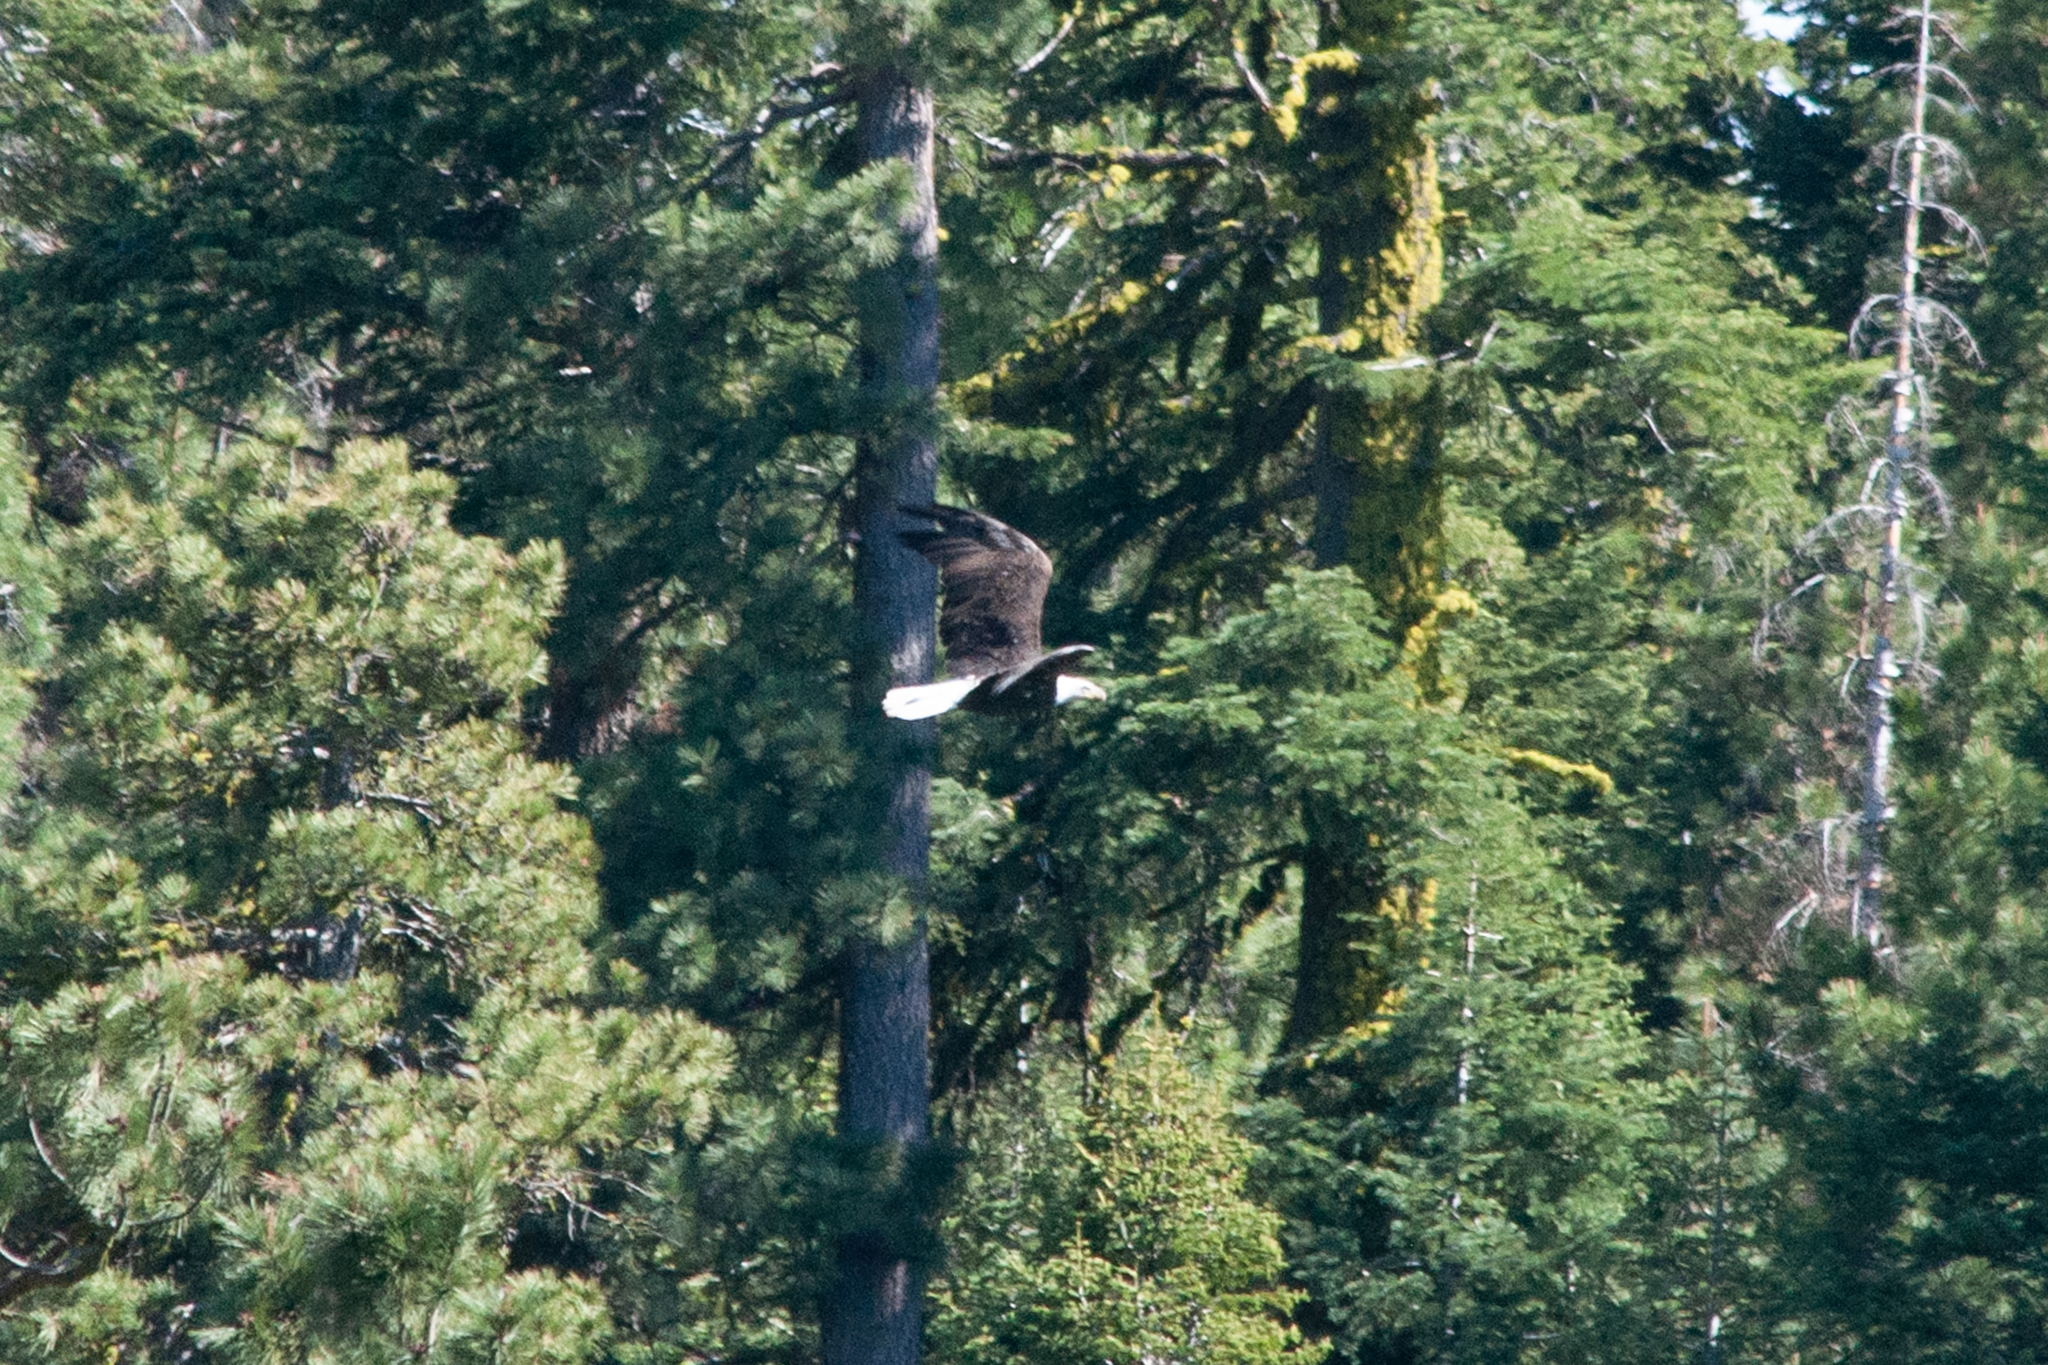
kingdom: Animalia
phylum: Chordata
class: Aves
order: Accipitriformes
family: Accipitridae
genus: Haliaeetus
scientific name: Haliaeetus leucocephalus
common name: Bald eagle
